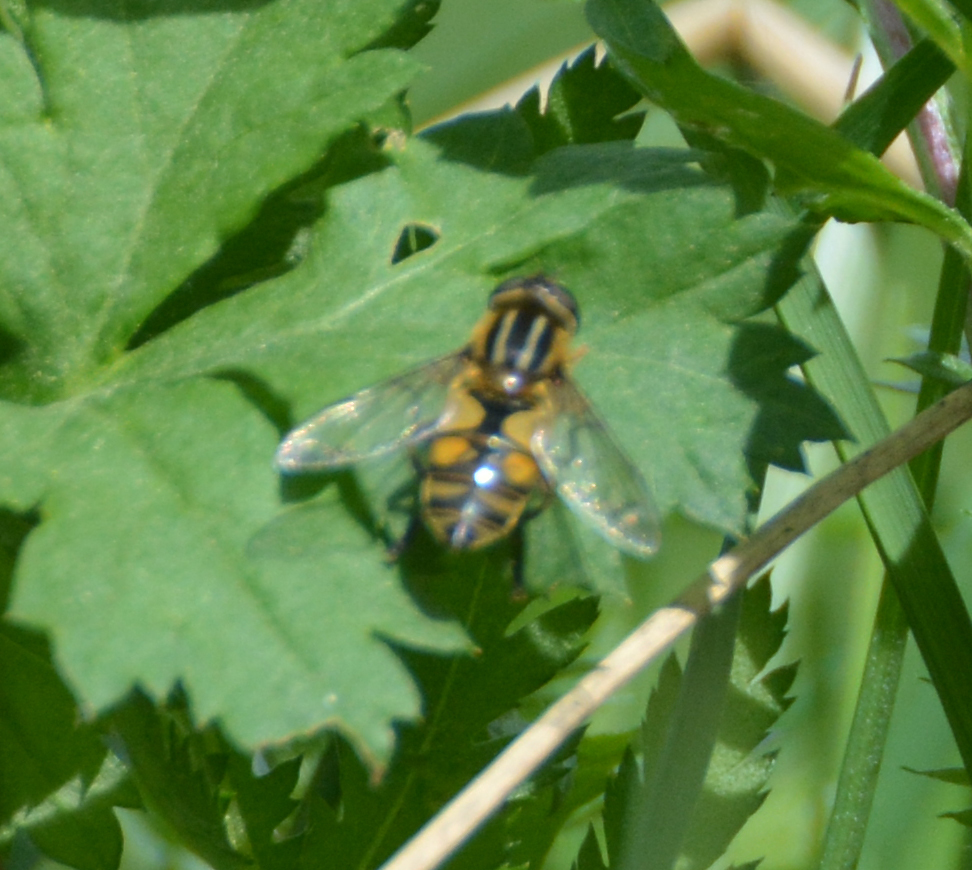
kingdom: Animalia
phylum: Arthropoda
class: Insecta
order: Diptera
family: Syrphidae
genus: Helophilus
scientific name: Helophilus hybridus
